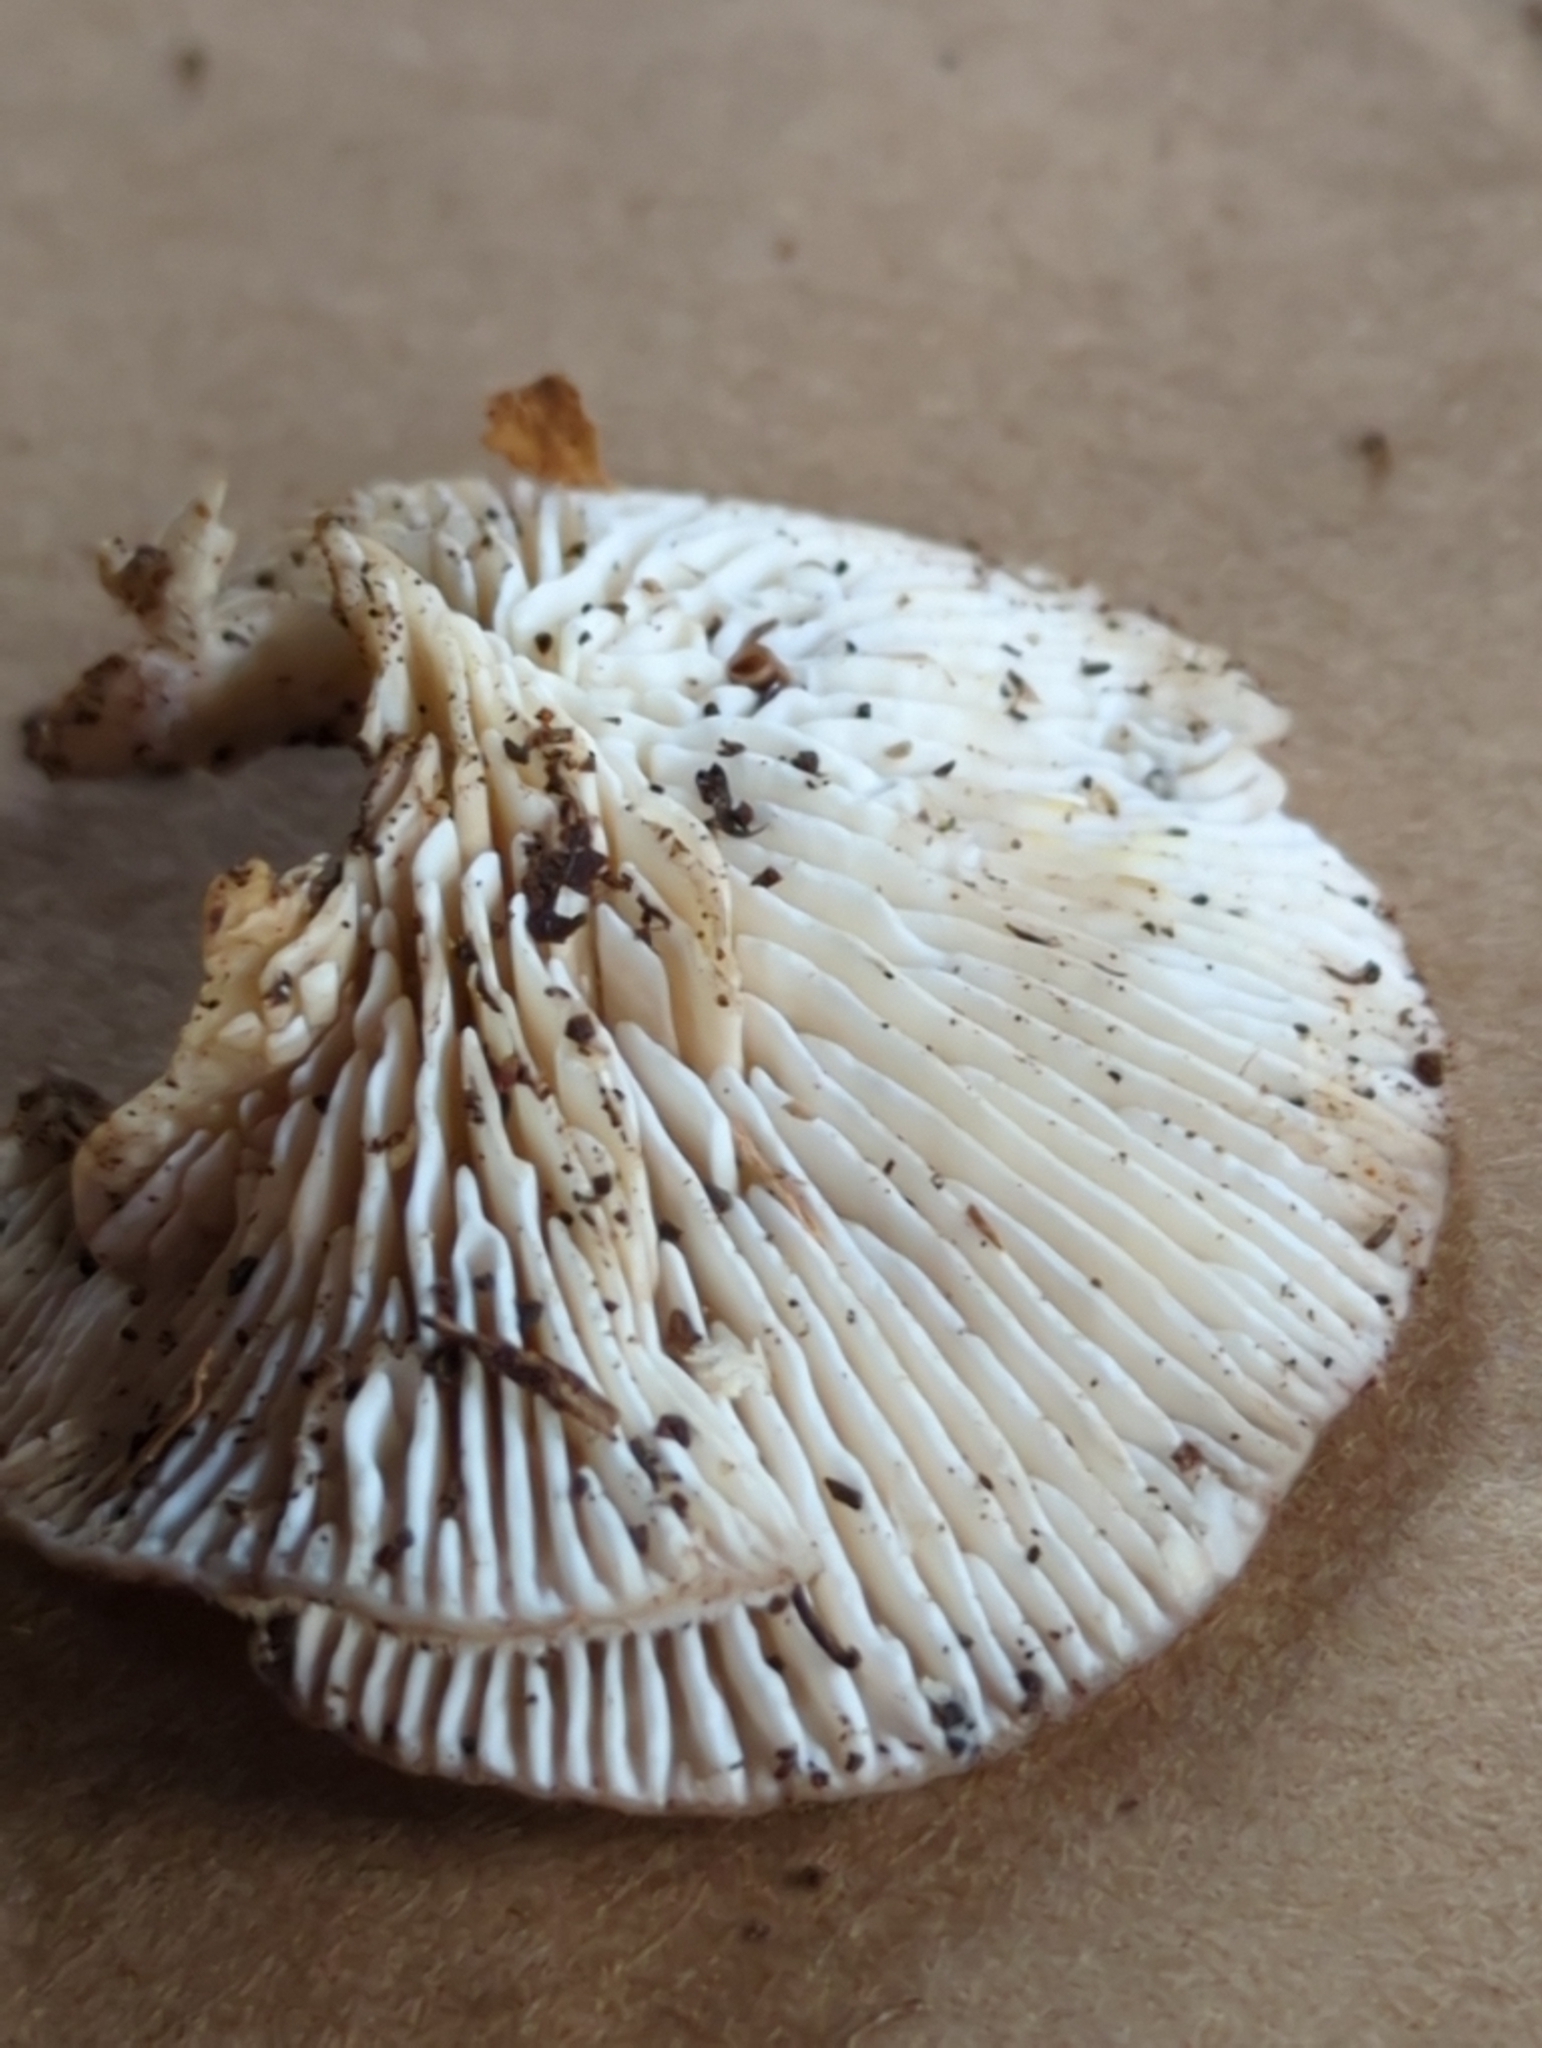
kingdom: Fungi
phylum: Basidiomycota
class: Agaricomycetes
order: Polyporales
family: Polyporaceae
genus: Lenzites
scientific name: Lenzites betulinus
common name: Birch mazegill
